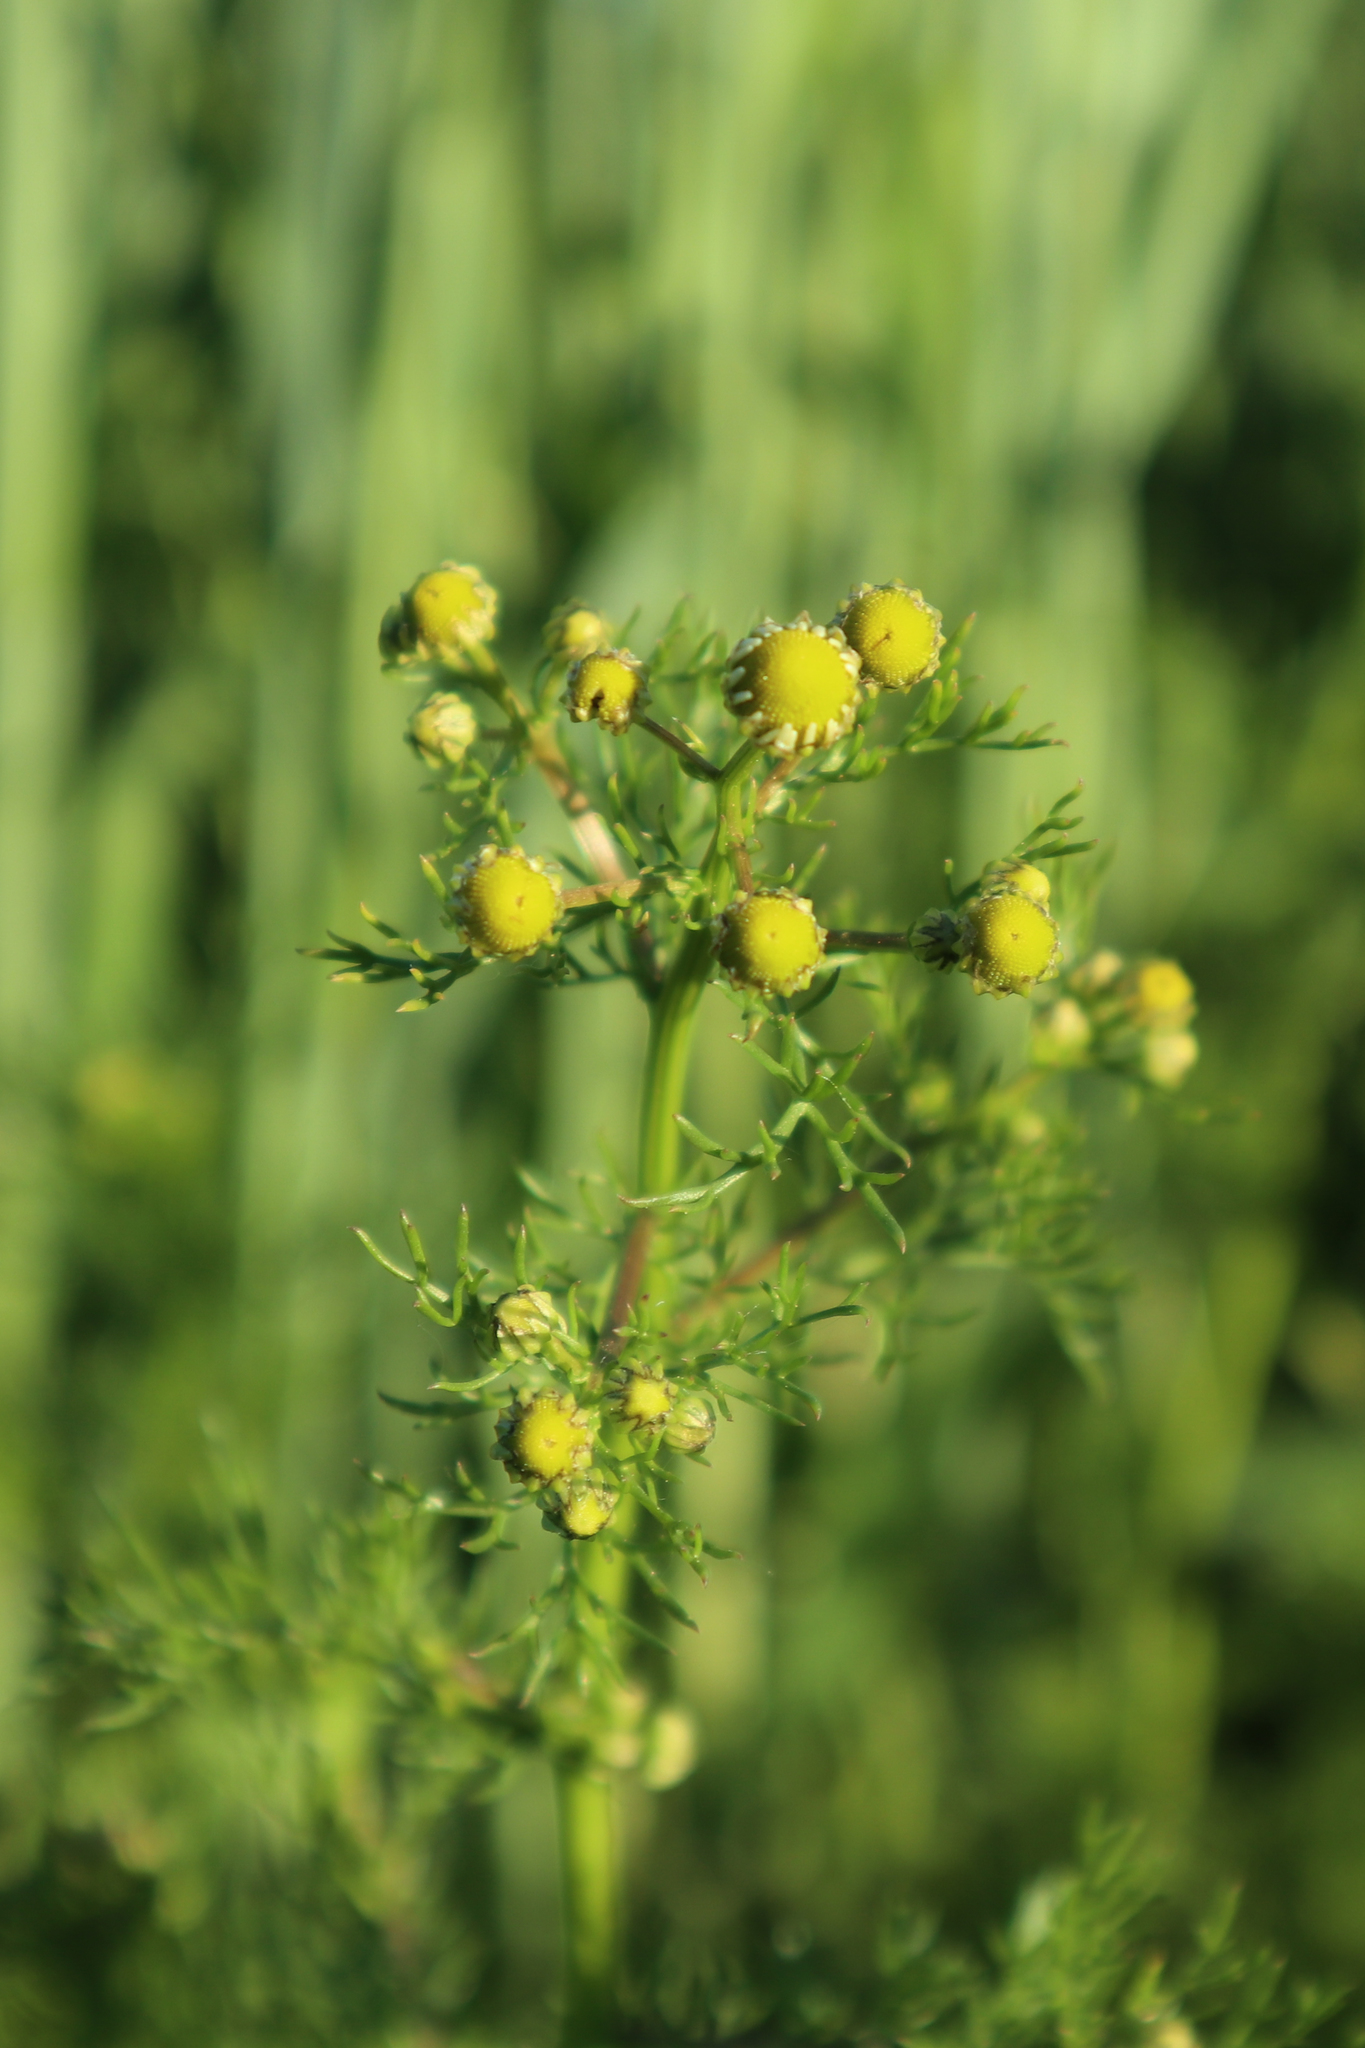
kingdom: Plantae
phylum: Tracheophyta
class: Magnoliopsida
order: Asterales
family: Asteraceae
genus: Matricaria
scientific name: Matricaria chamomilla
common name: Scented mayweed
